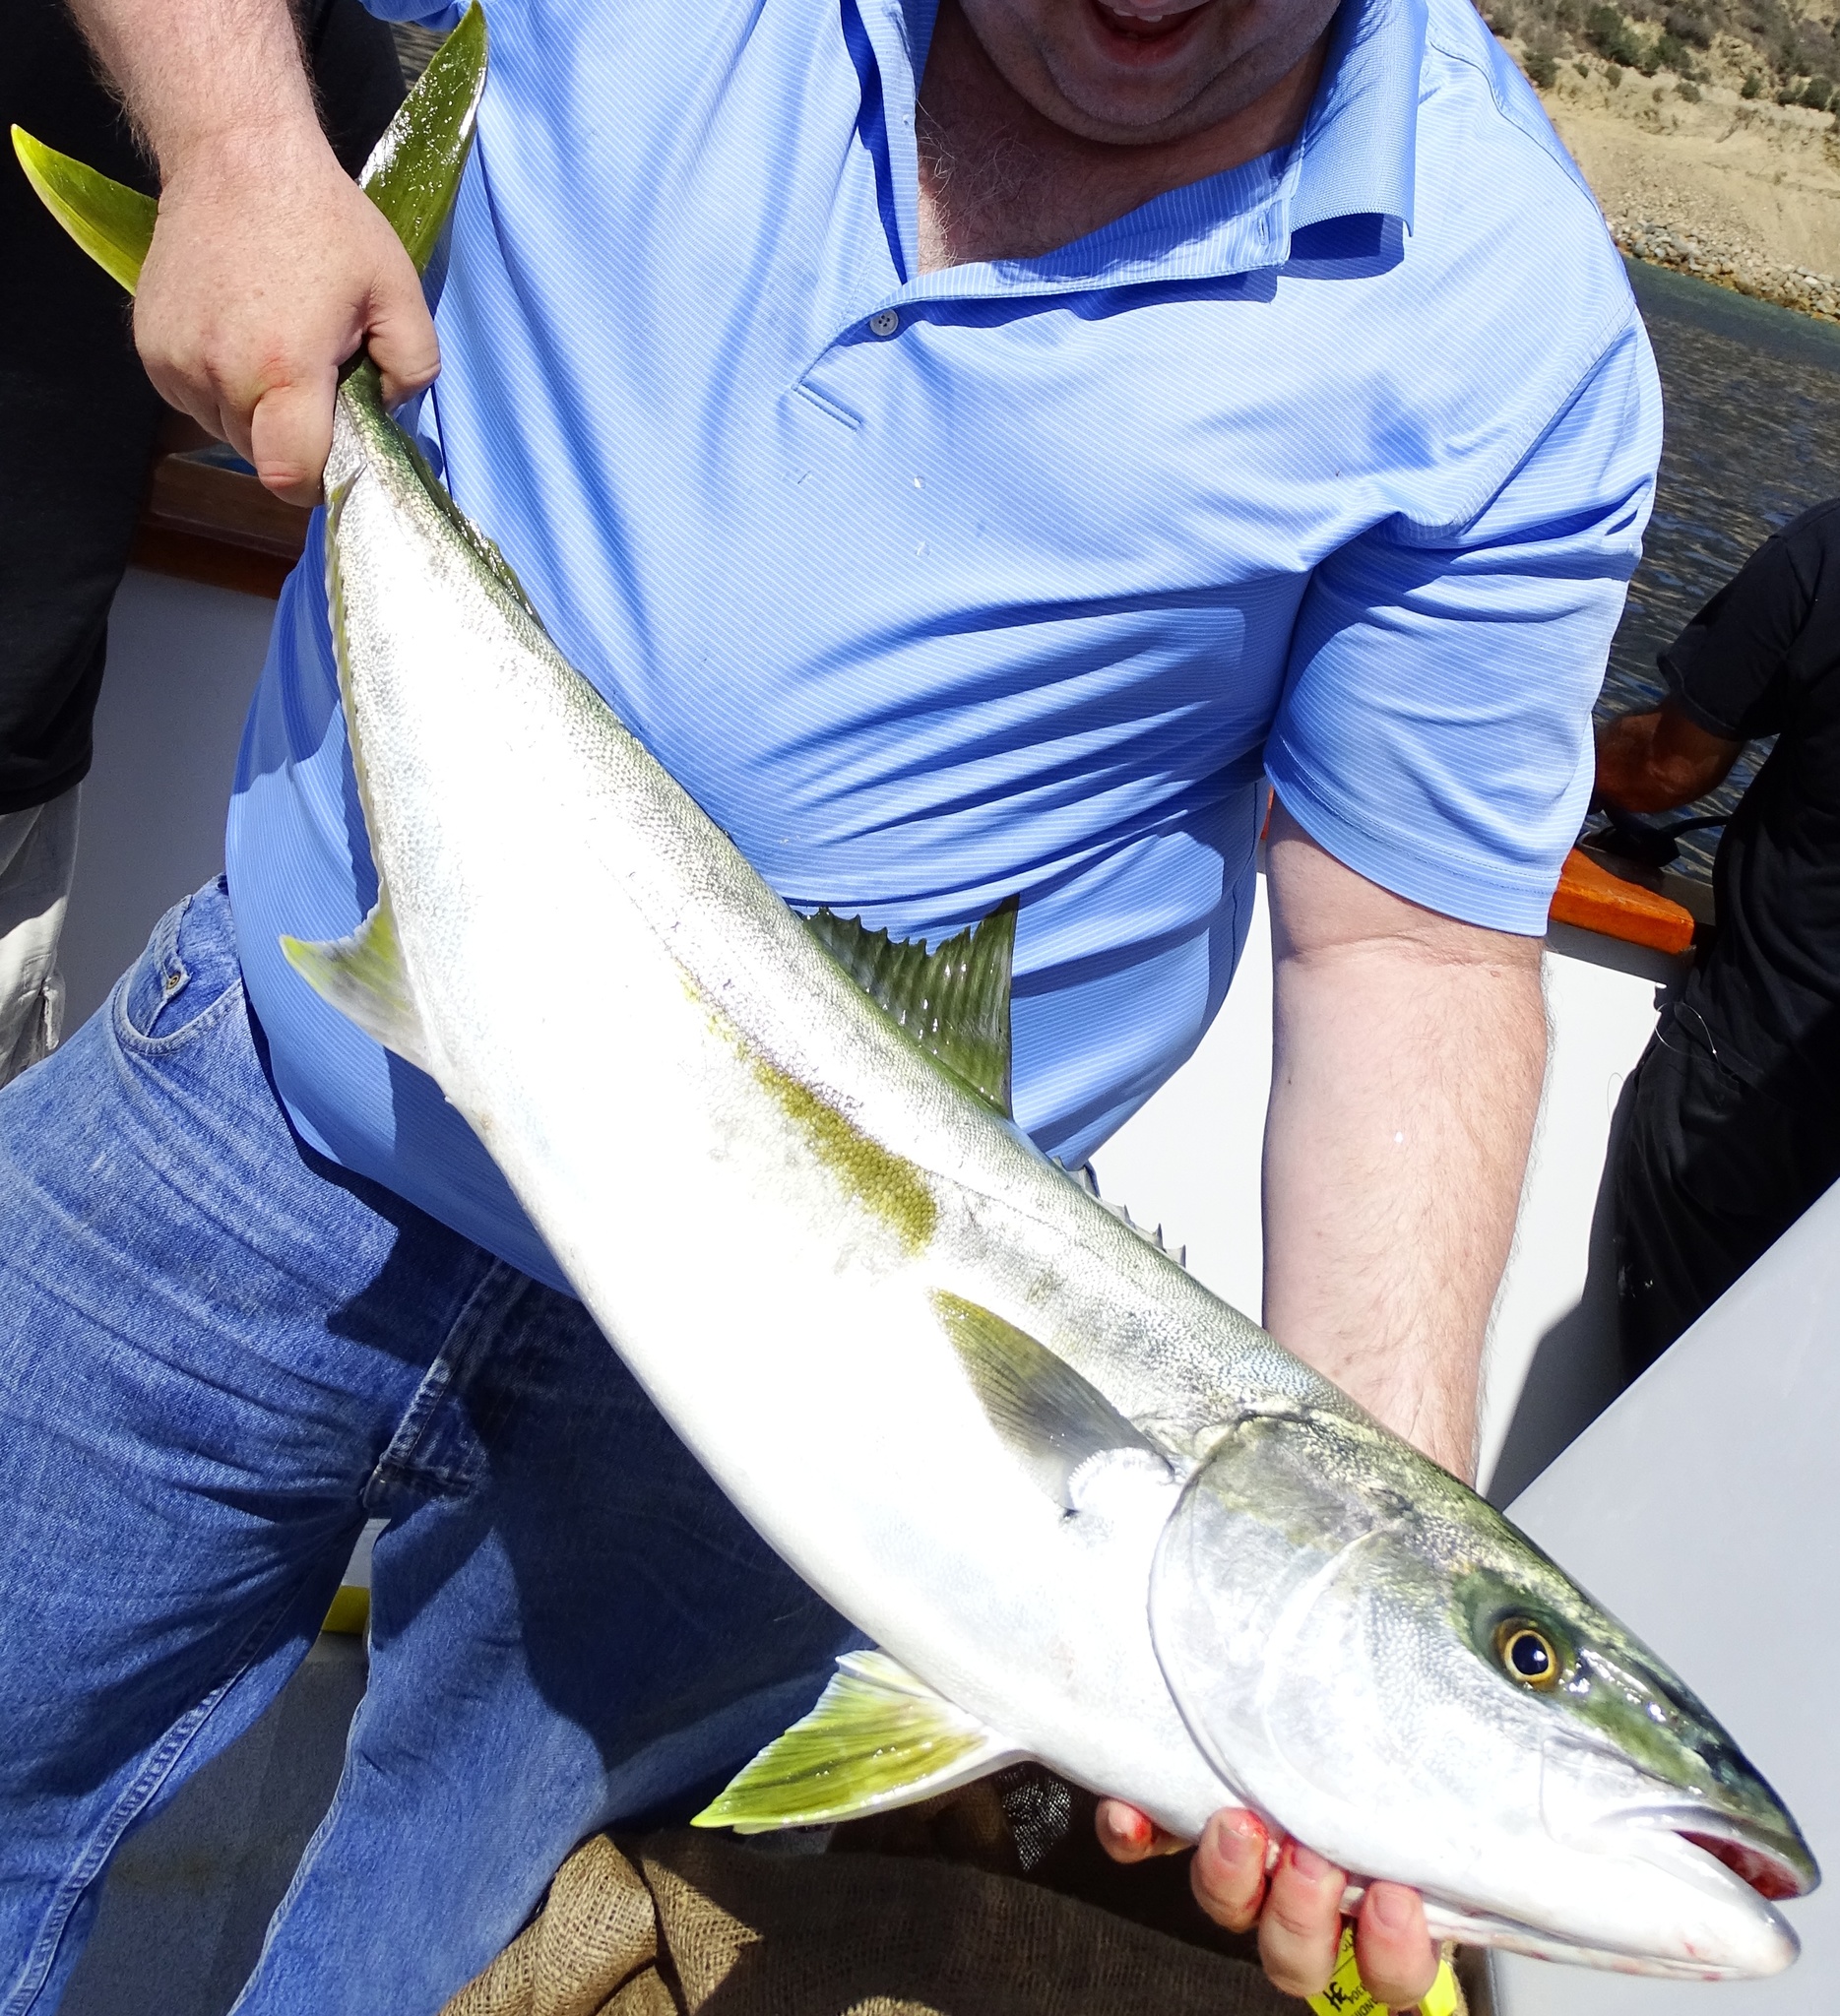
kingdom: Animalia
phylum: Chordata
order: Perciformes
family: Carangidae
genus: Seriola
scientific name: Seriola lalandi
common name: Yellowtail kingfish
